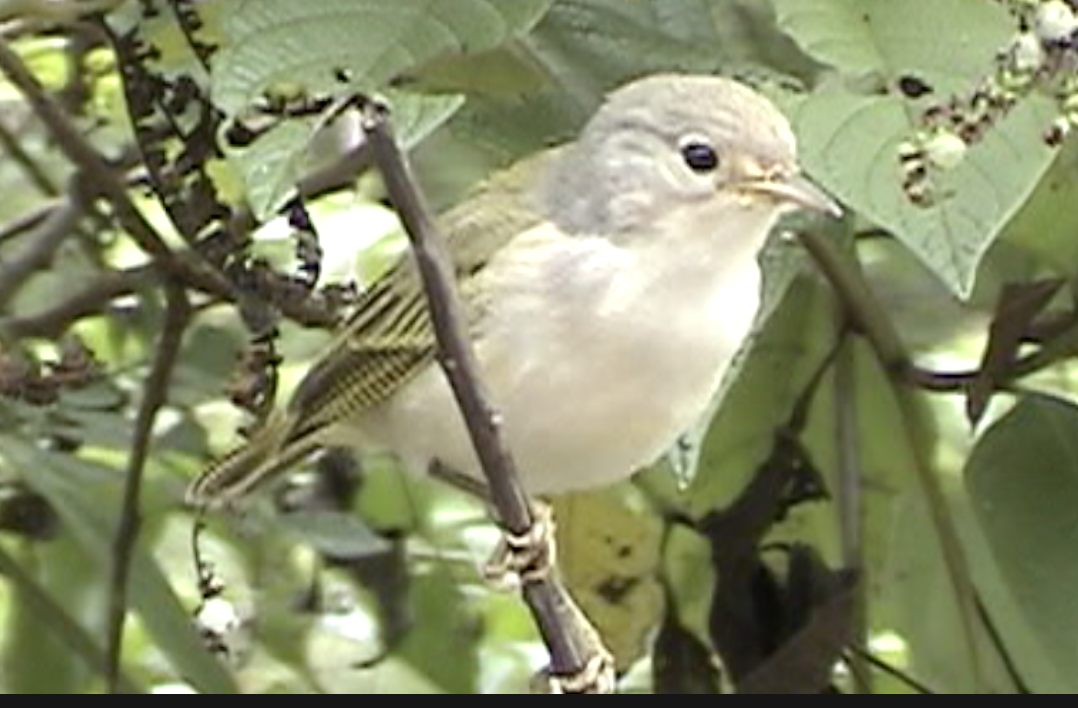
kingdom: Animalia
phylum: Chordata
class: Aves
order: Passeriformes
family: Parulidae
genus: Setophaga
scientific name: Setophaga petechia
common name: Yellow warbler
